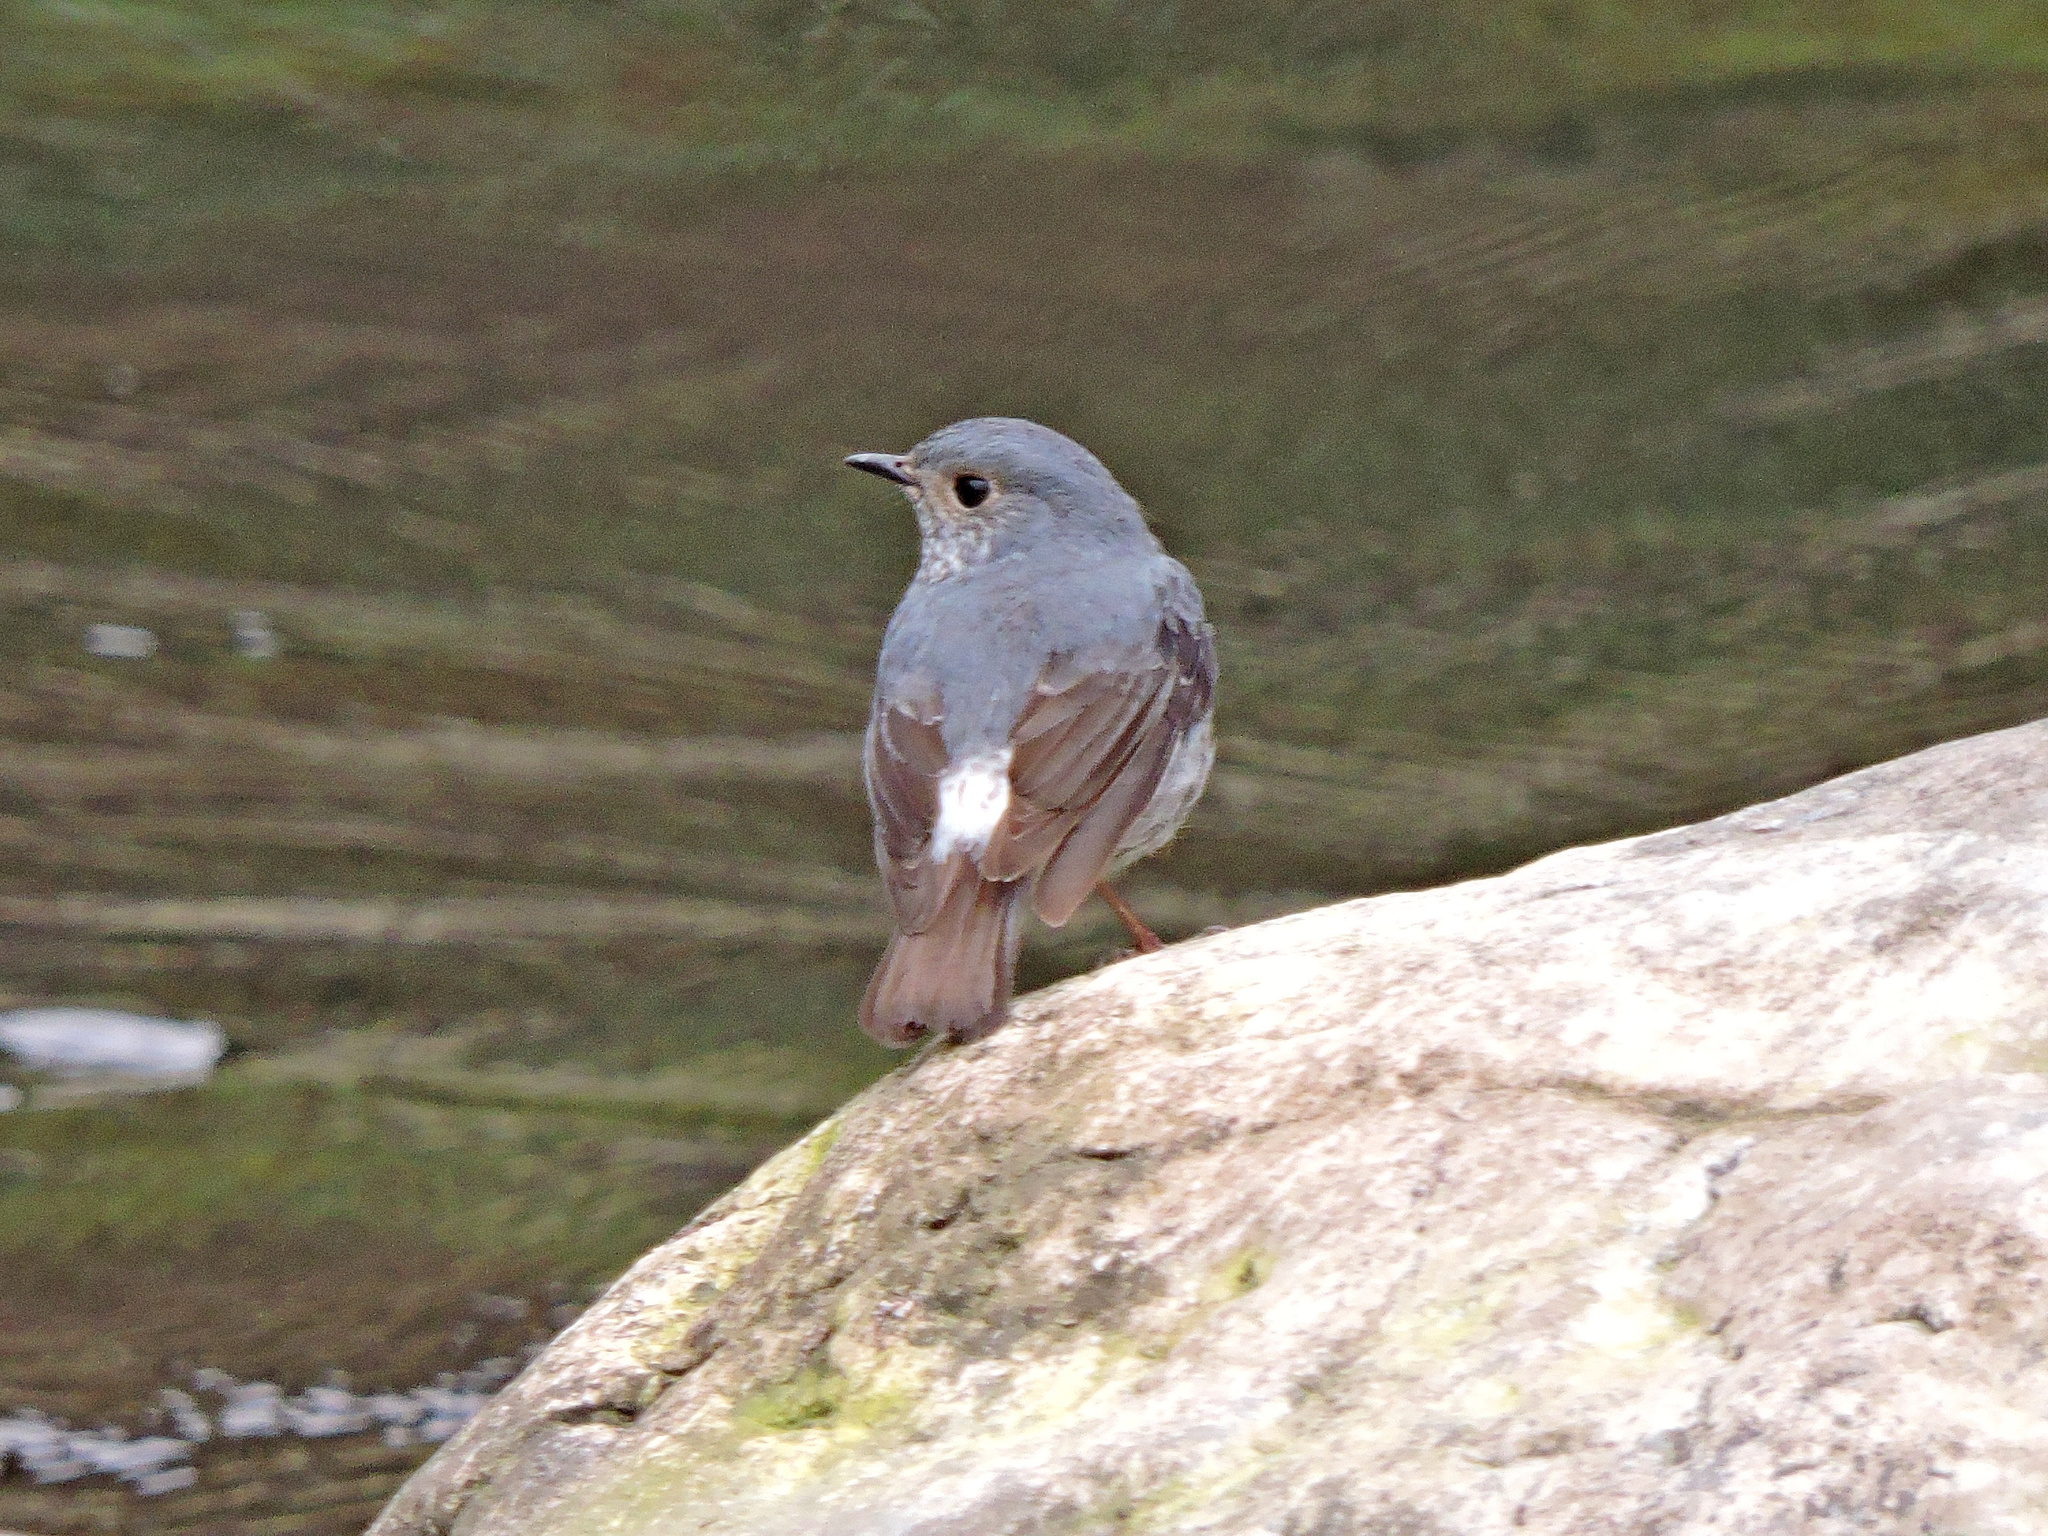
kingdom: Animalia
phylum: Chordata
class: Aves
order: Passeriformes
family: Muscicapidae
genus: Phoenicurus
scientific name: Phoenicurus fuliginosus
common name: Plumbeous water redstart
